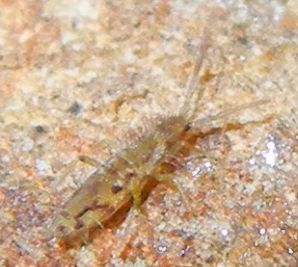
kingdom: Animalia
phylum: Arthropoda
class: Collembola
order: Entomobryomorpha
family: Entomobryidae
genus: Entomobrya
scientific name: Entomobrya intermedia
